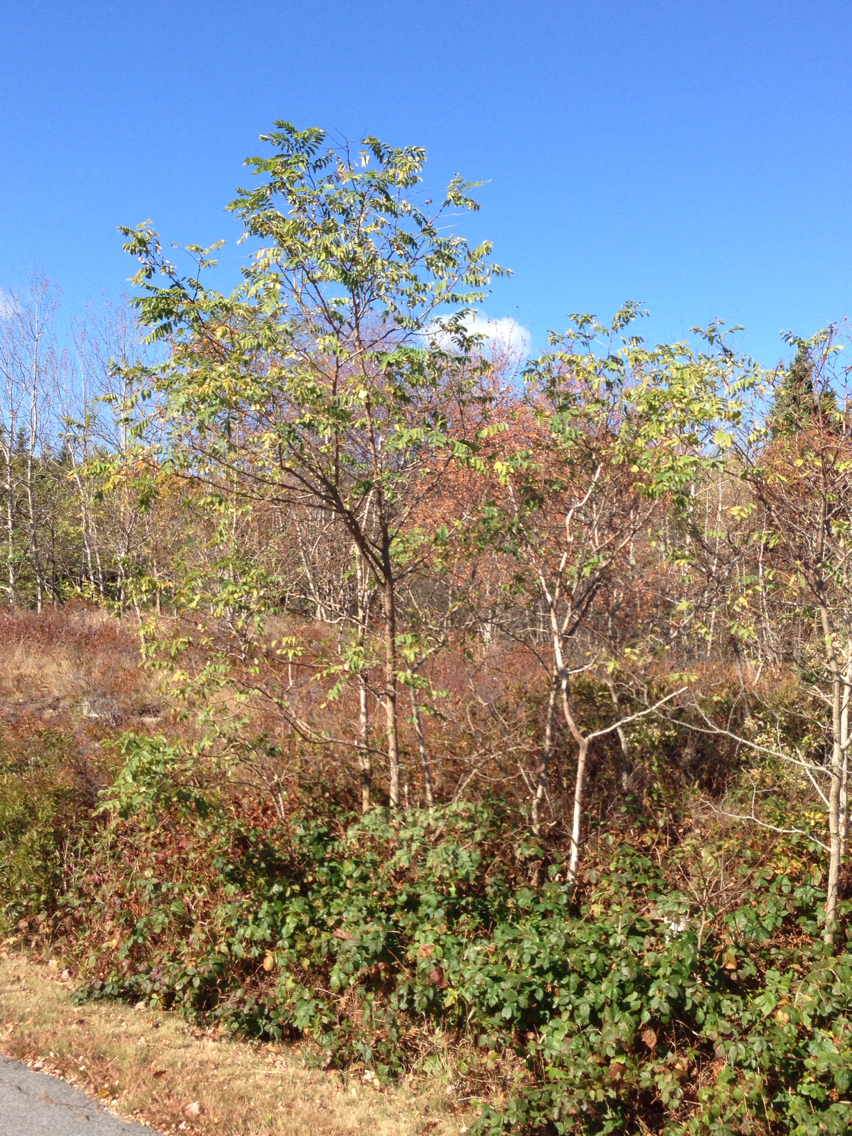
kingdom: Plantae
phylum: Tracheophyta
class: Magnoliopsida
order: Fabales
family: Fabaceae
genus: Robinia
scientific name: Robinia pseudoacacia
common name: Black locust
